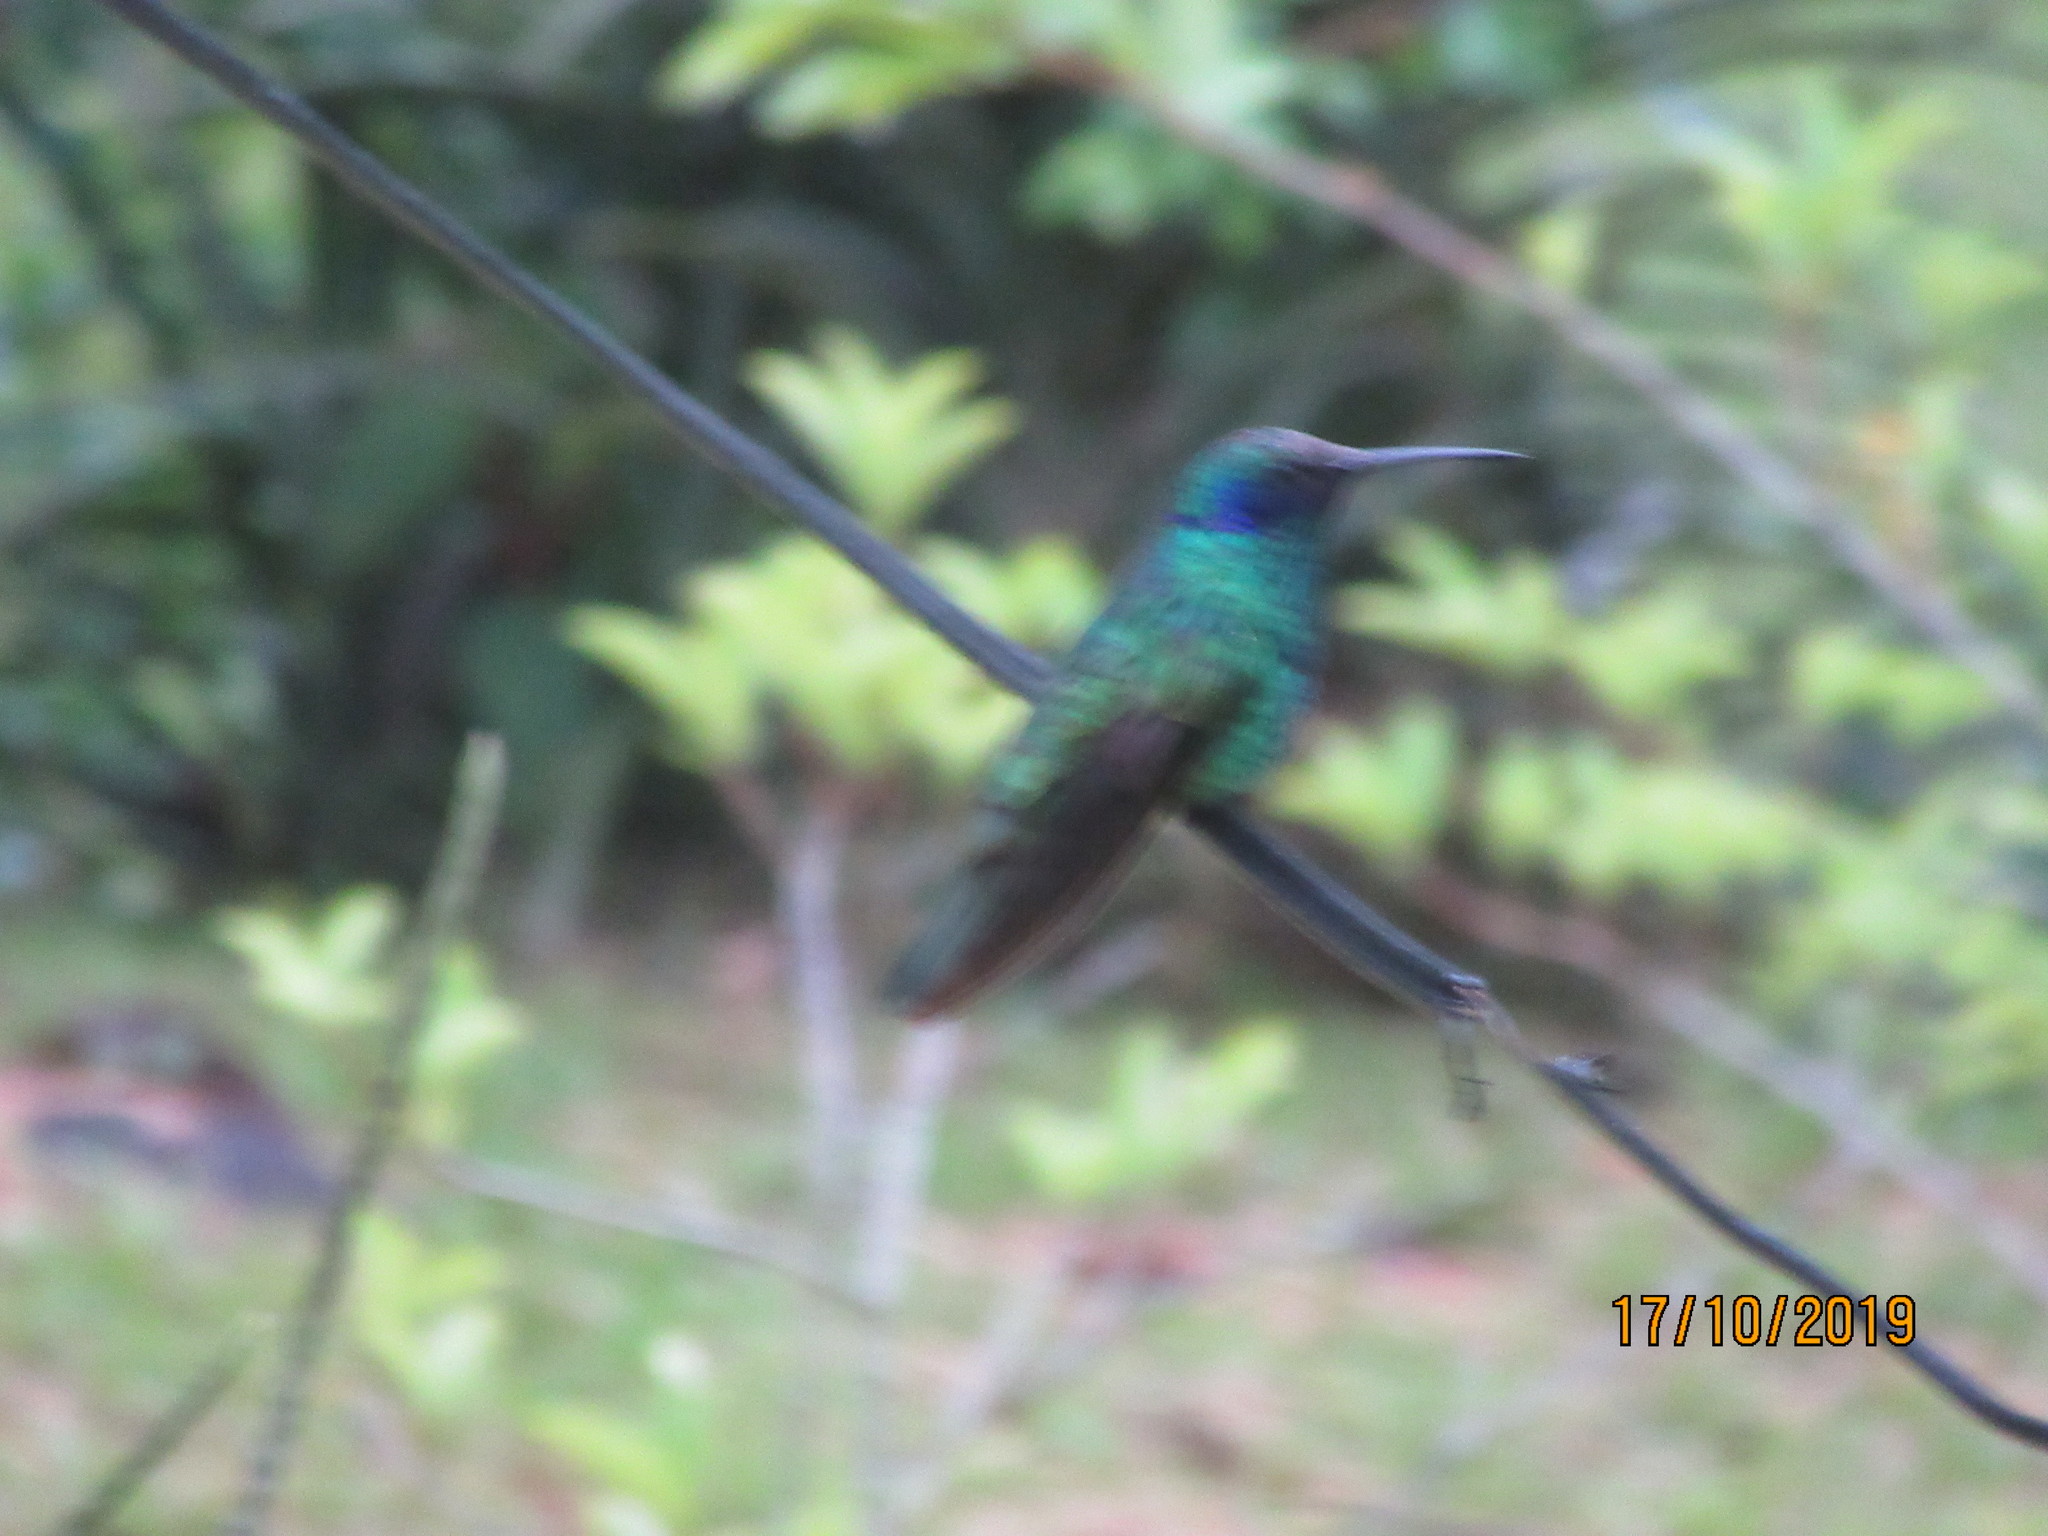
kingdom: Animalia
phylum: Chordata
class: Aves
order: Apodiformes
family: Trochilidae
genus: Colibri
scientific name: Colibri coruscans
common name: Sparkling violetear
